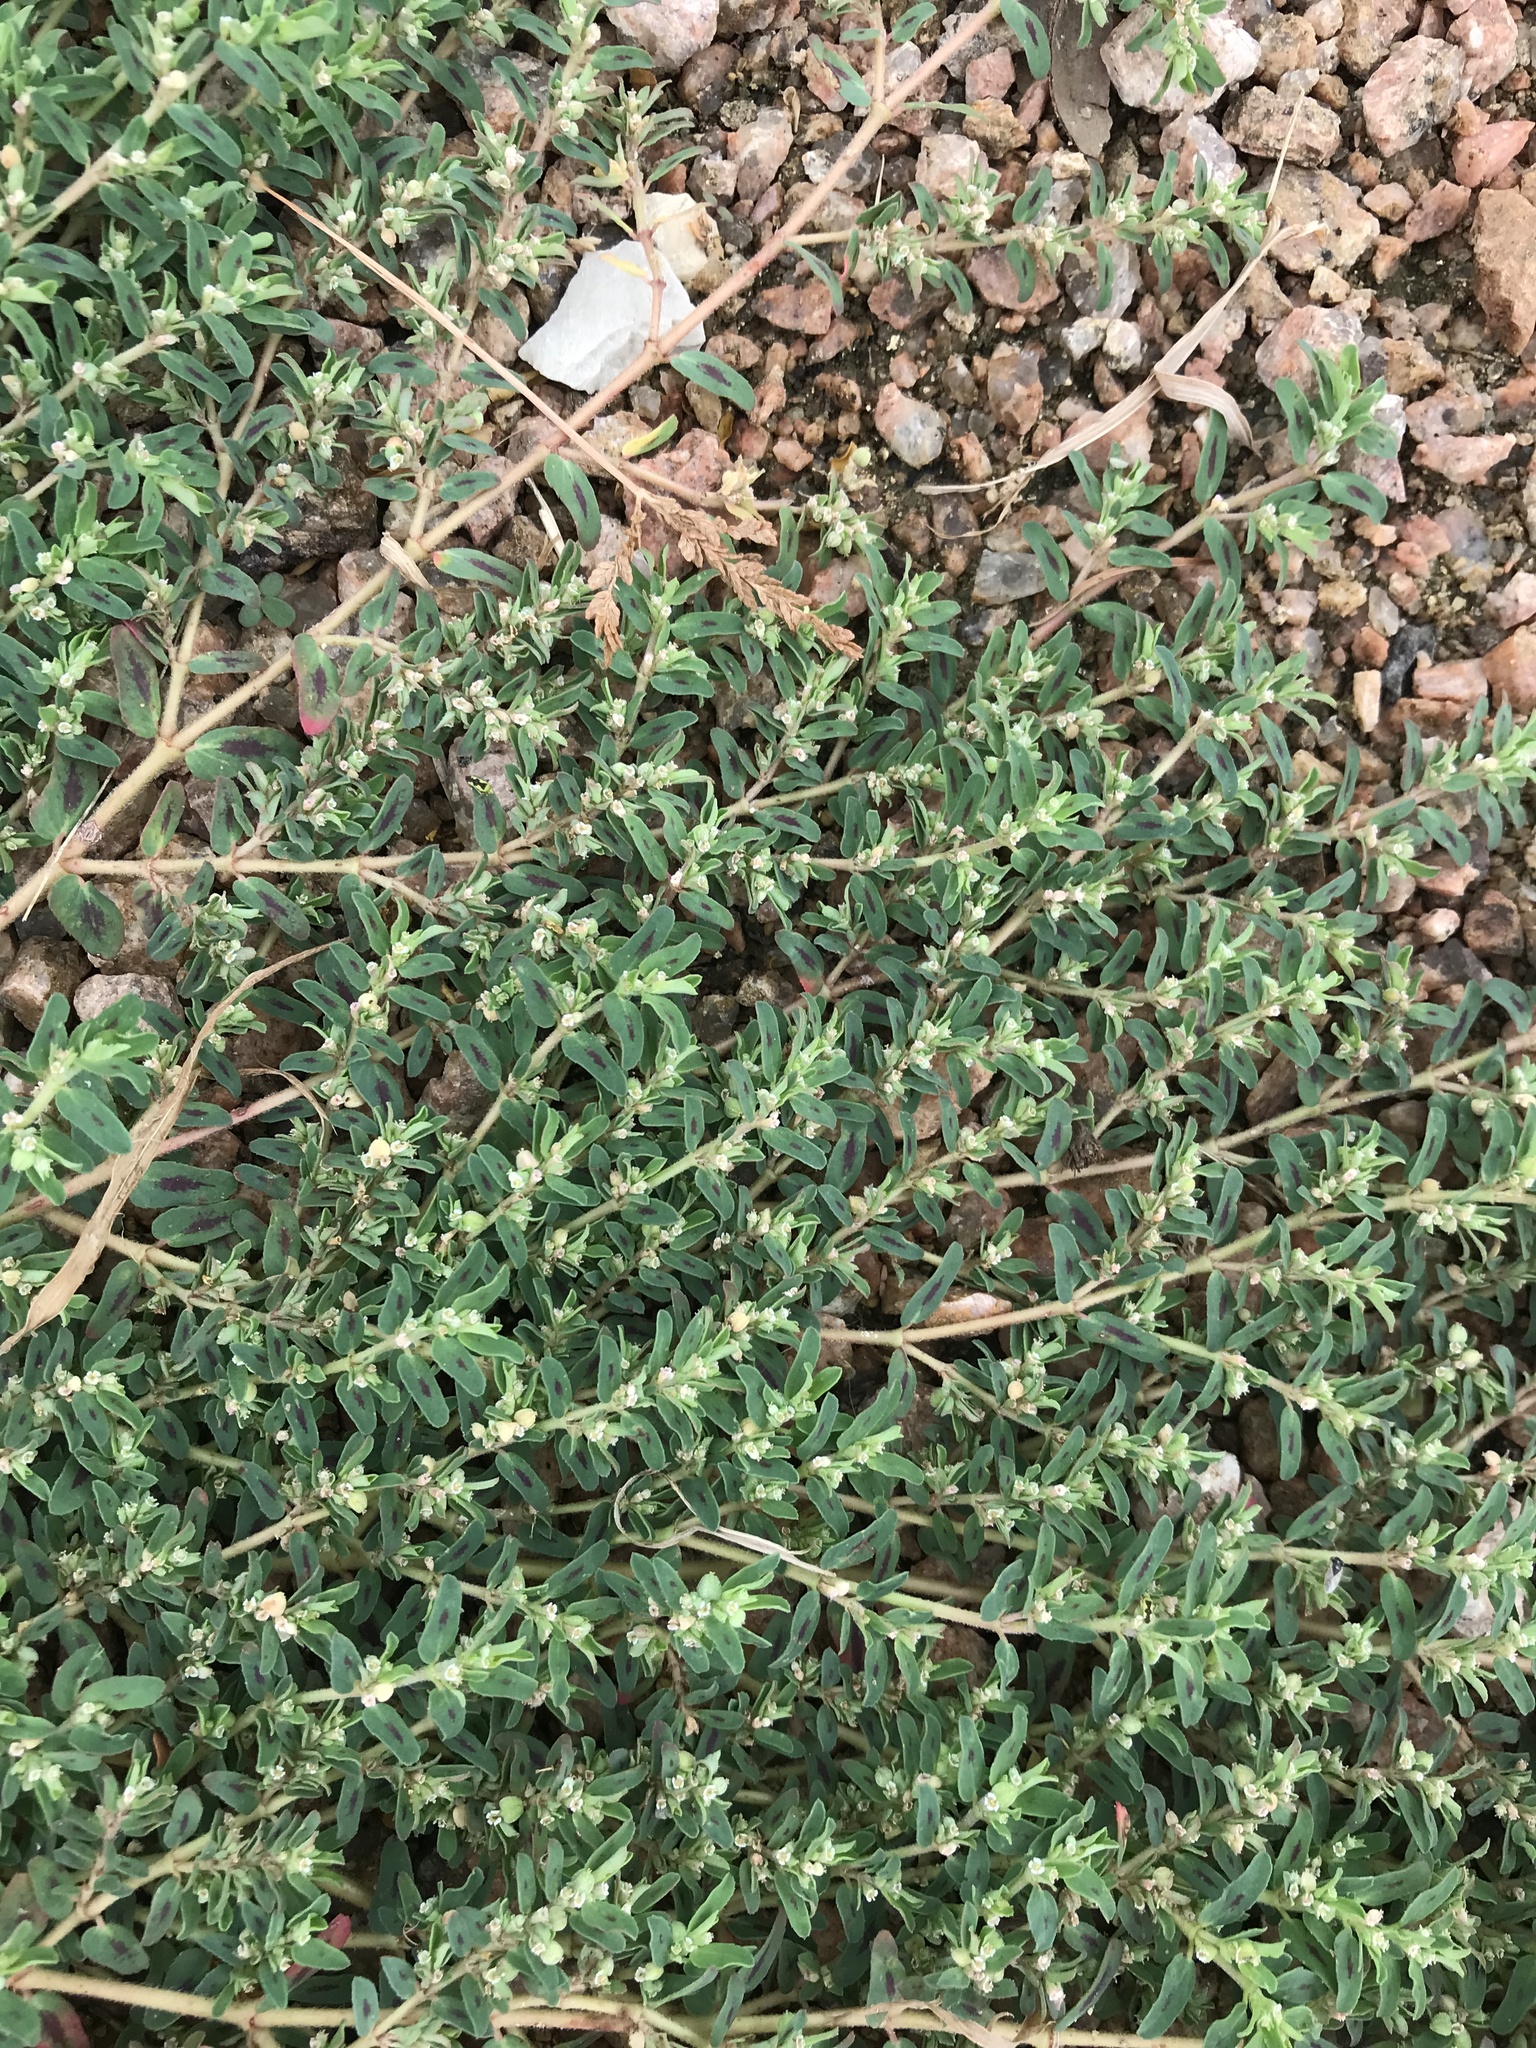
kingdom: Plantae
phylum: Tracheophyta
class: Magnoliopsida
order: Malpighiales
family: Euphorbiaceae
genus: Euphorbia
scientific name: Euphorbia maculata
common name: Spotted spurge
